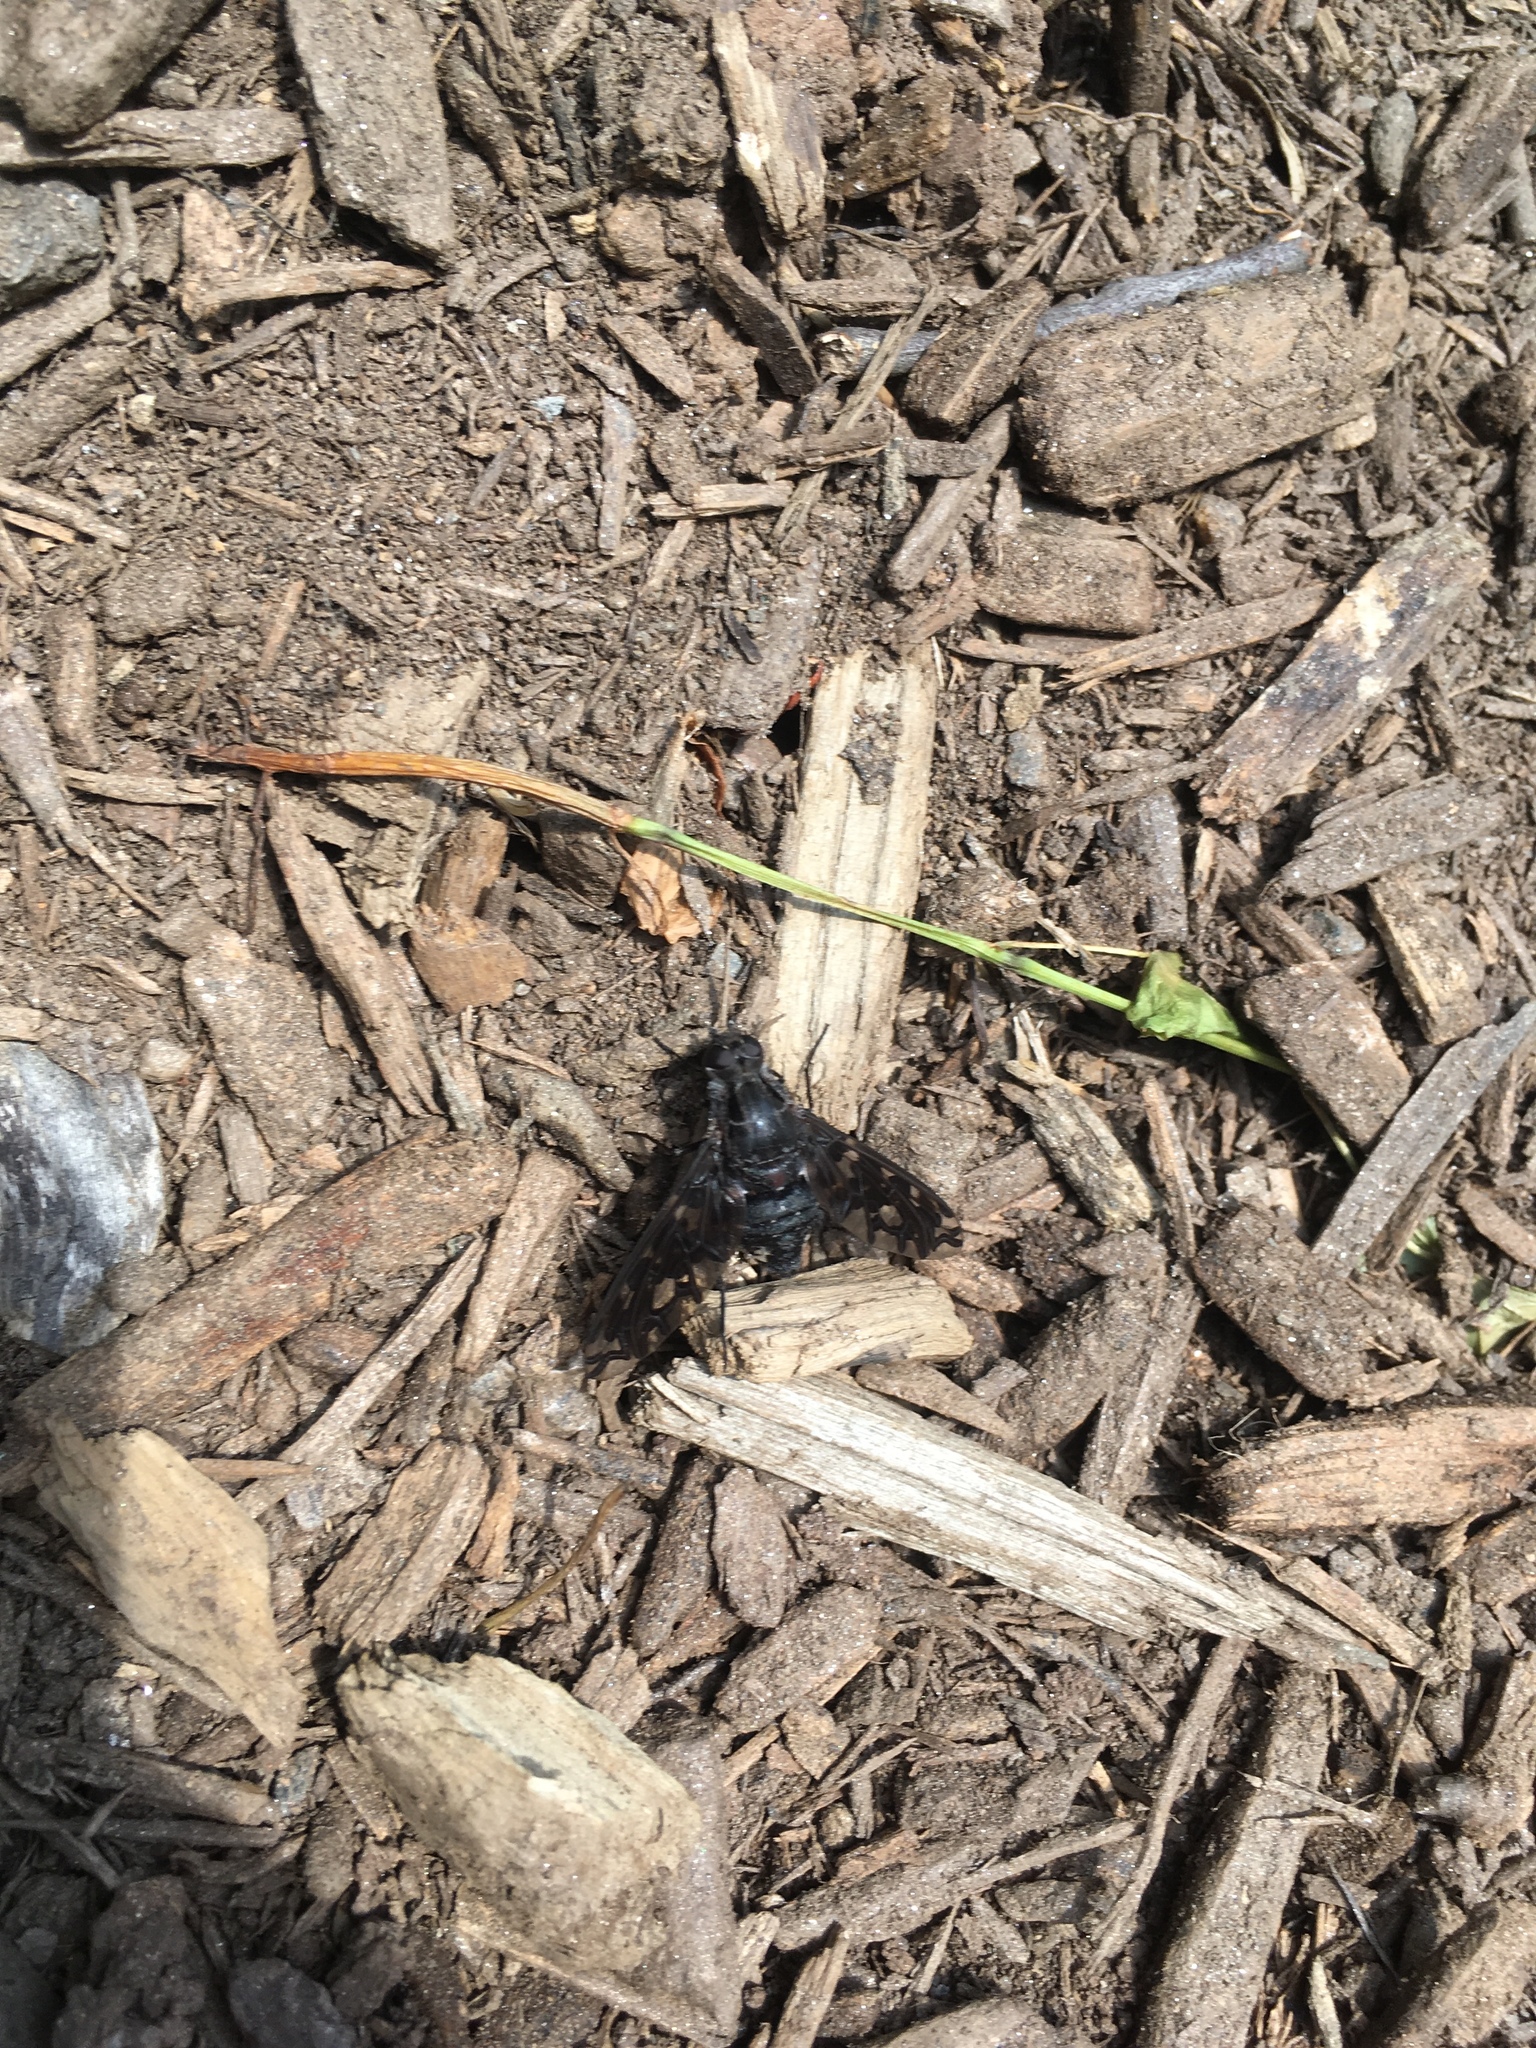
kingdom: Animalia
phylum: Arthropoda
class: Insecta
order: Diptera
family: Bombyliidae
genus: Xenox
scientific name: Xenox tigrinus
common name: Tiger bee fly
